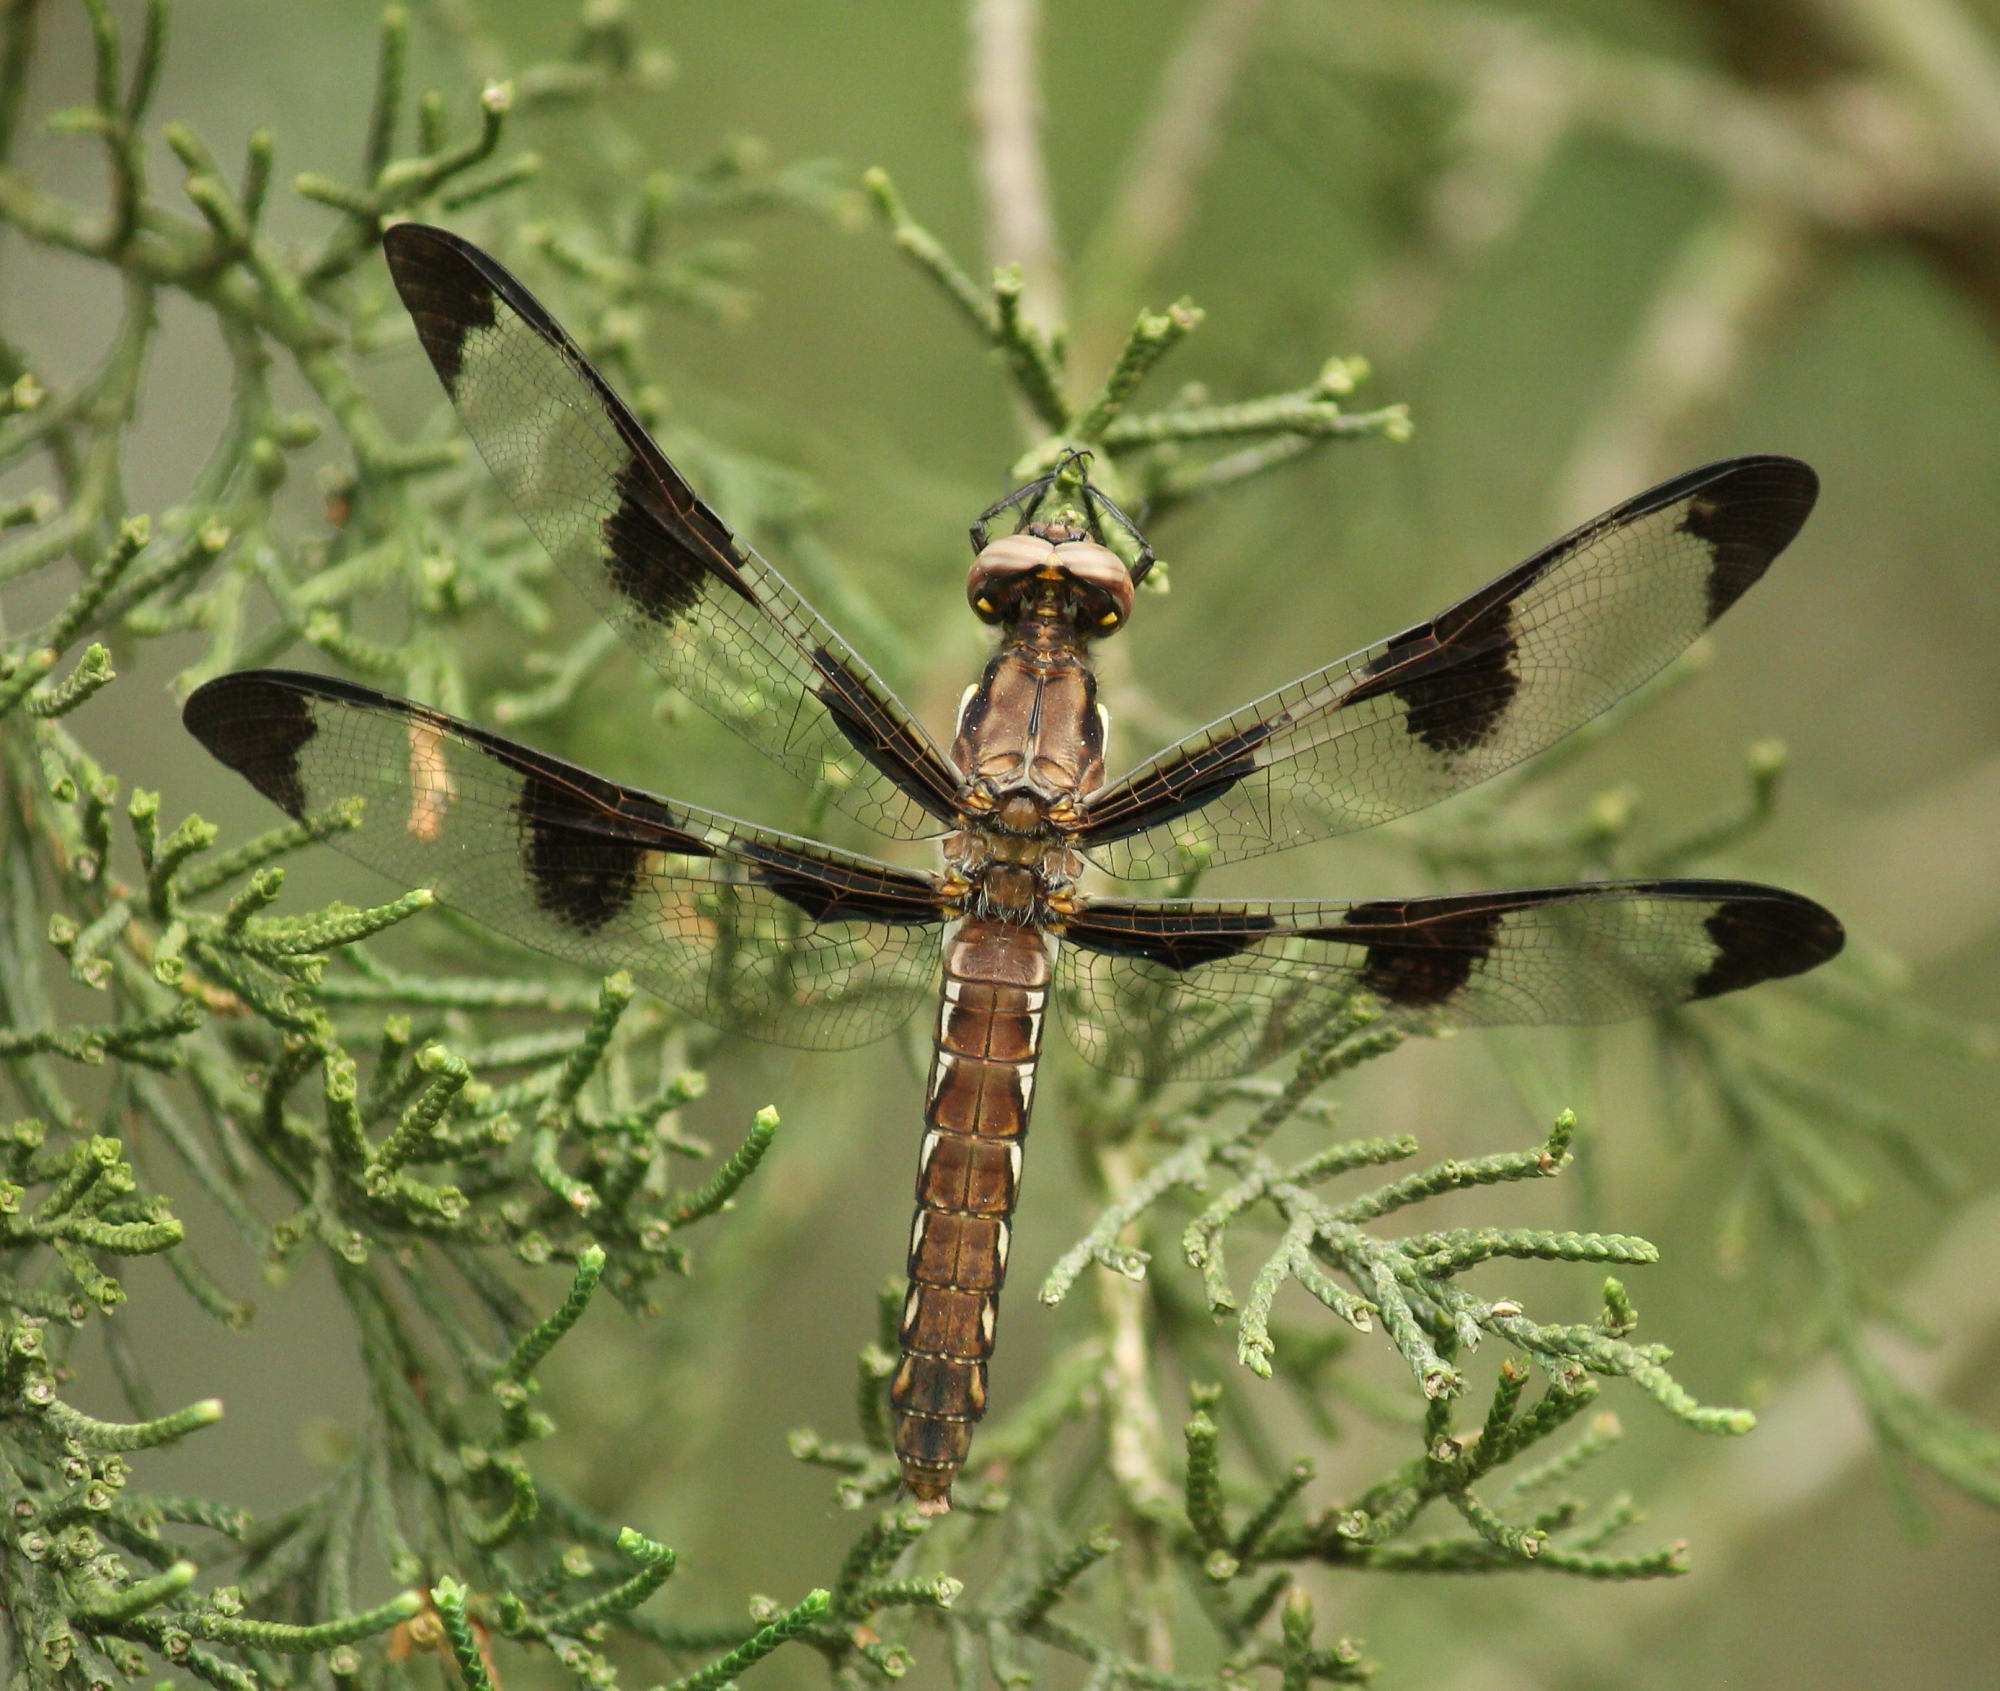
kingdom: Animalia
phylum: Arthropoda
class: Insecta
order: Odonata
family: Libellulidae
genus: Plathemis
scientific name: Plathemis lydia
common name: Common whitetail
